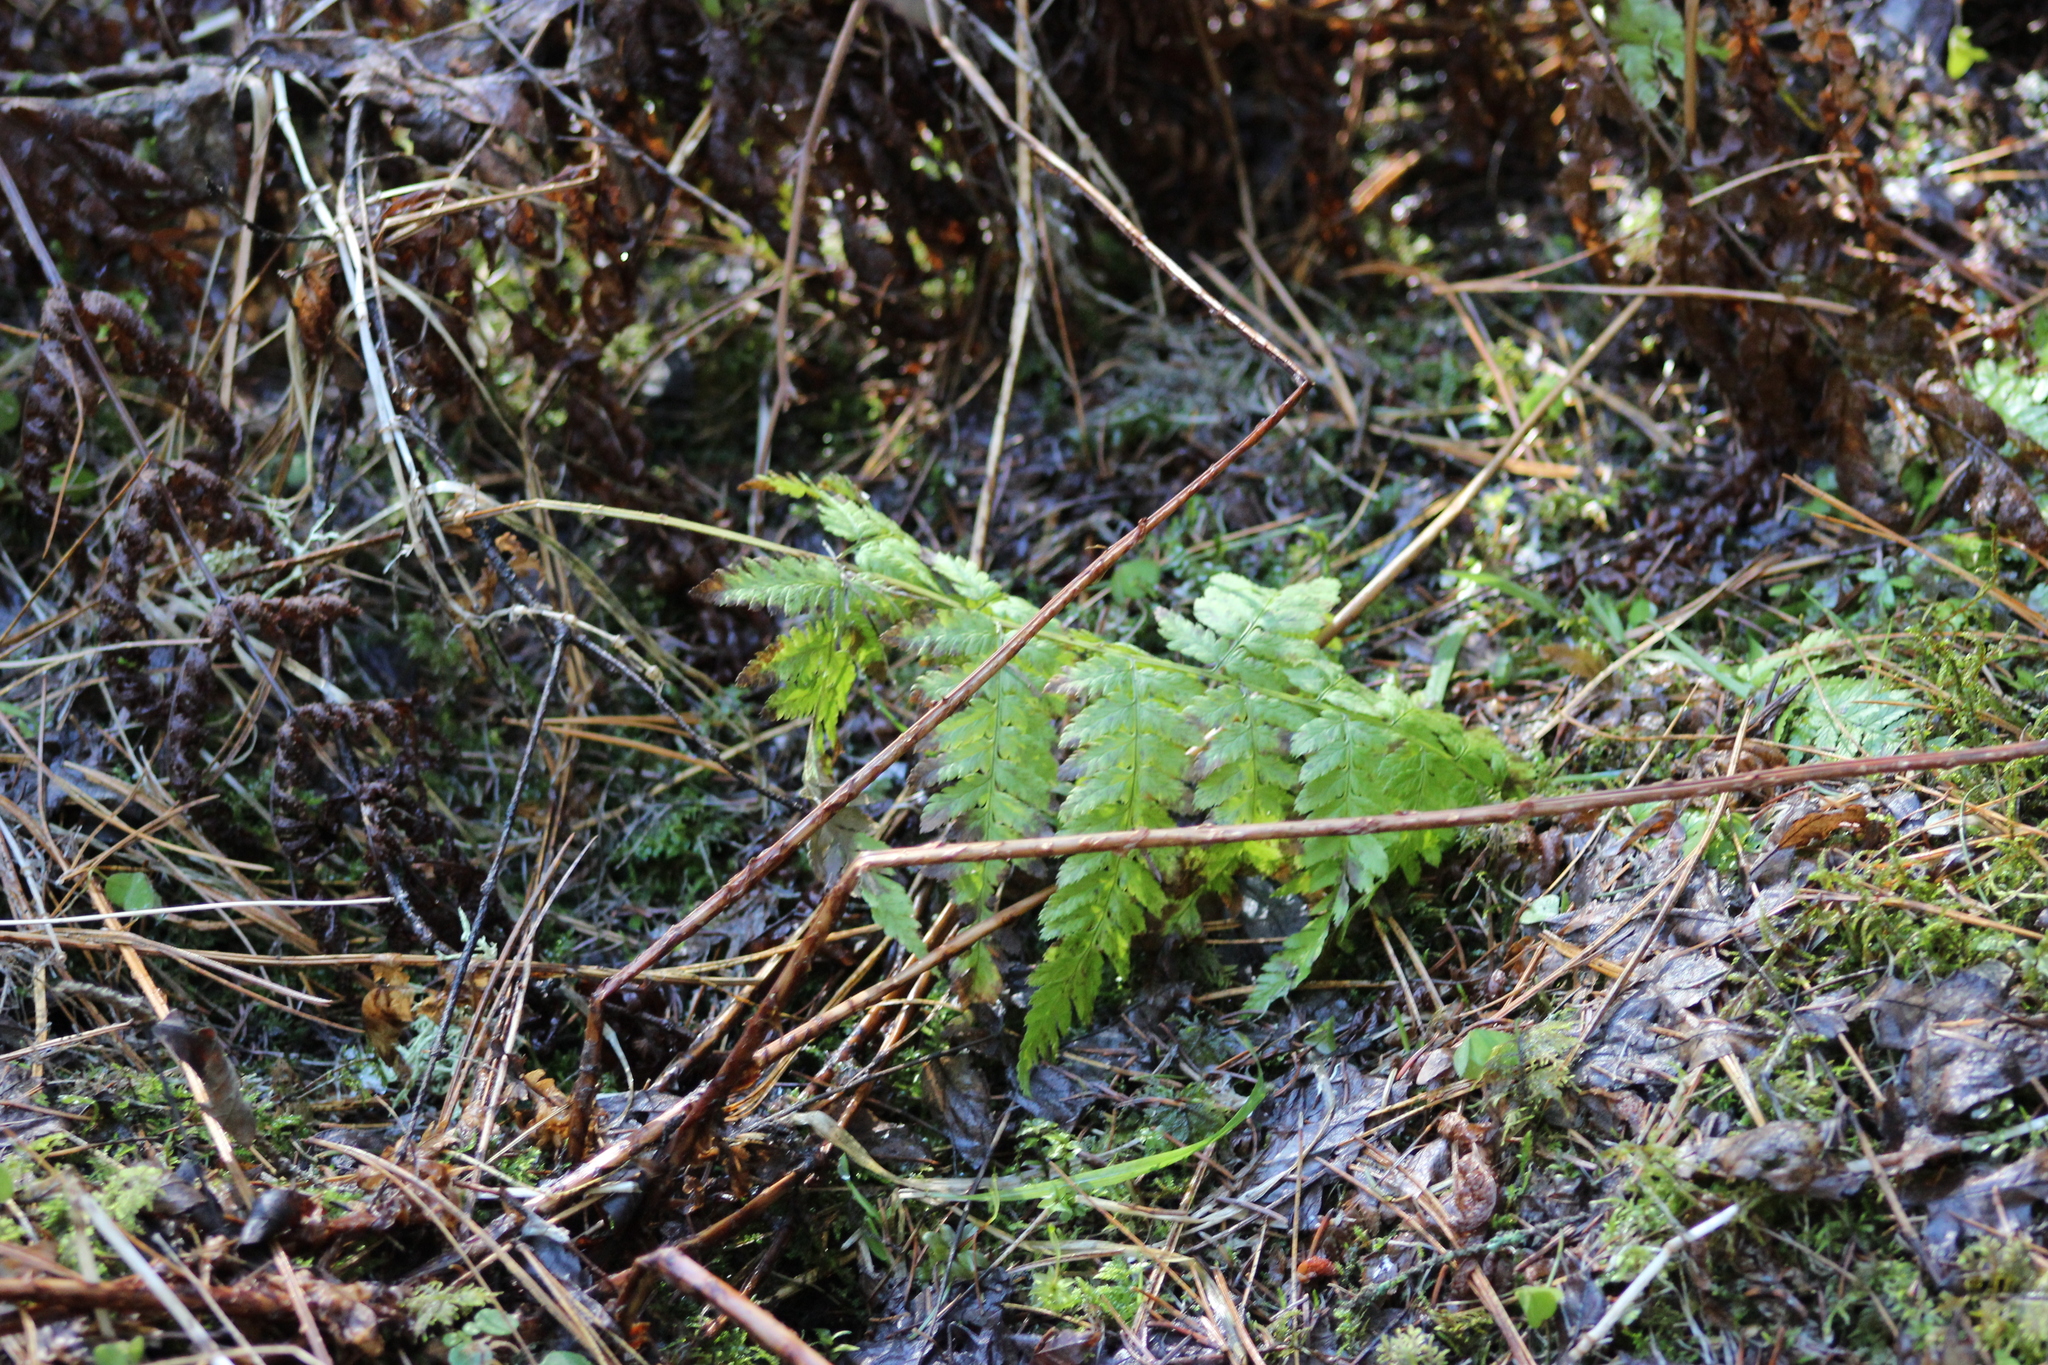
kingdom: Plantae
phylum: Tracheophyta
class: Polypodiopsida
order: Polypodiales
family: Dryopteridaceae
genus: Dryopteris
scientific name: Dryopteris carthusiana
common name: Narrow buckler-fern
